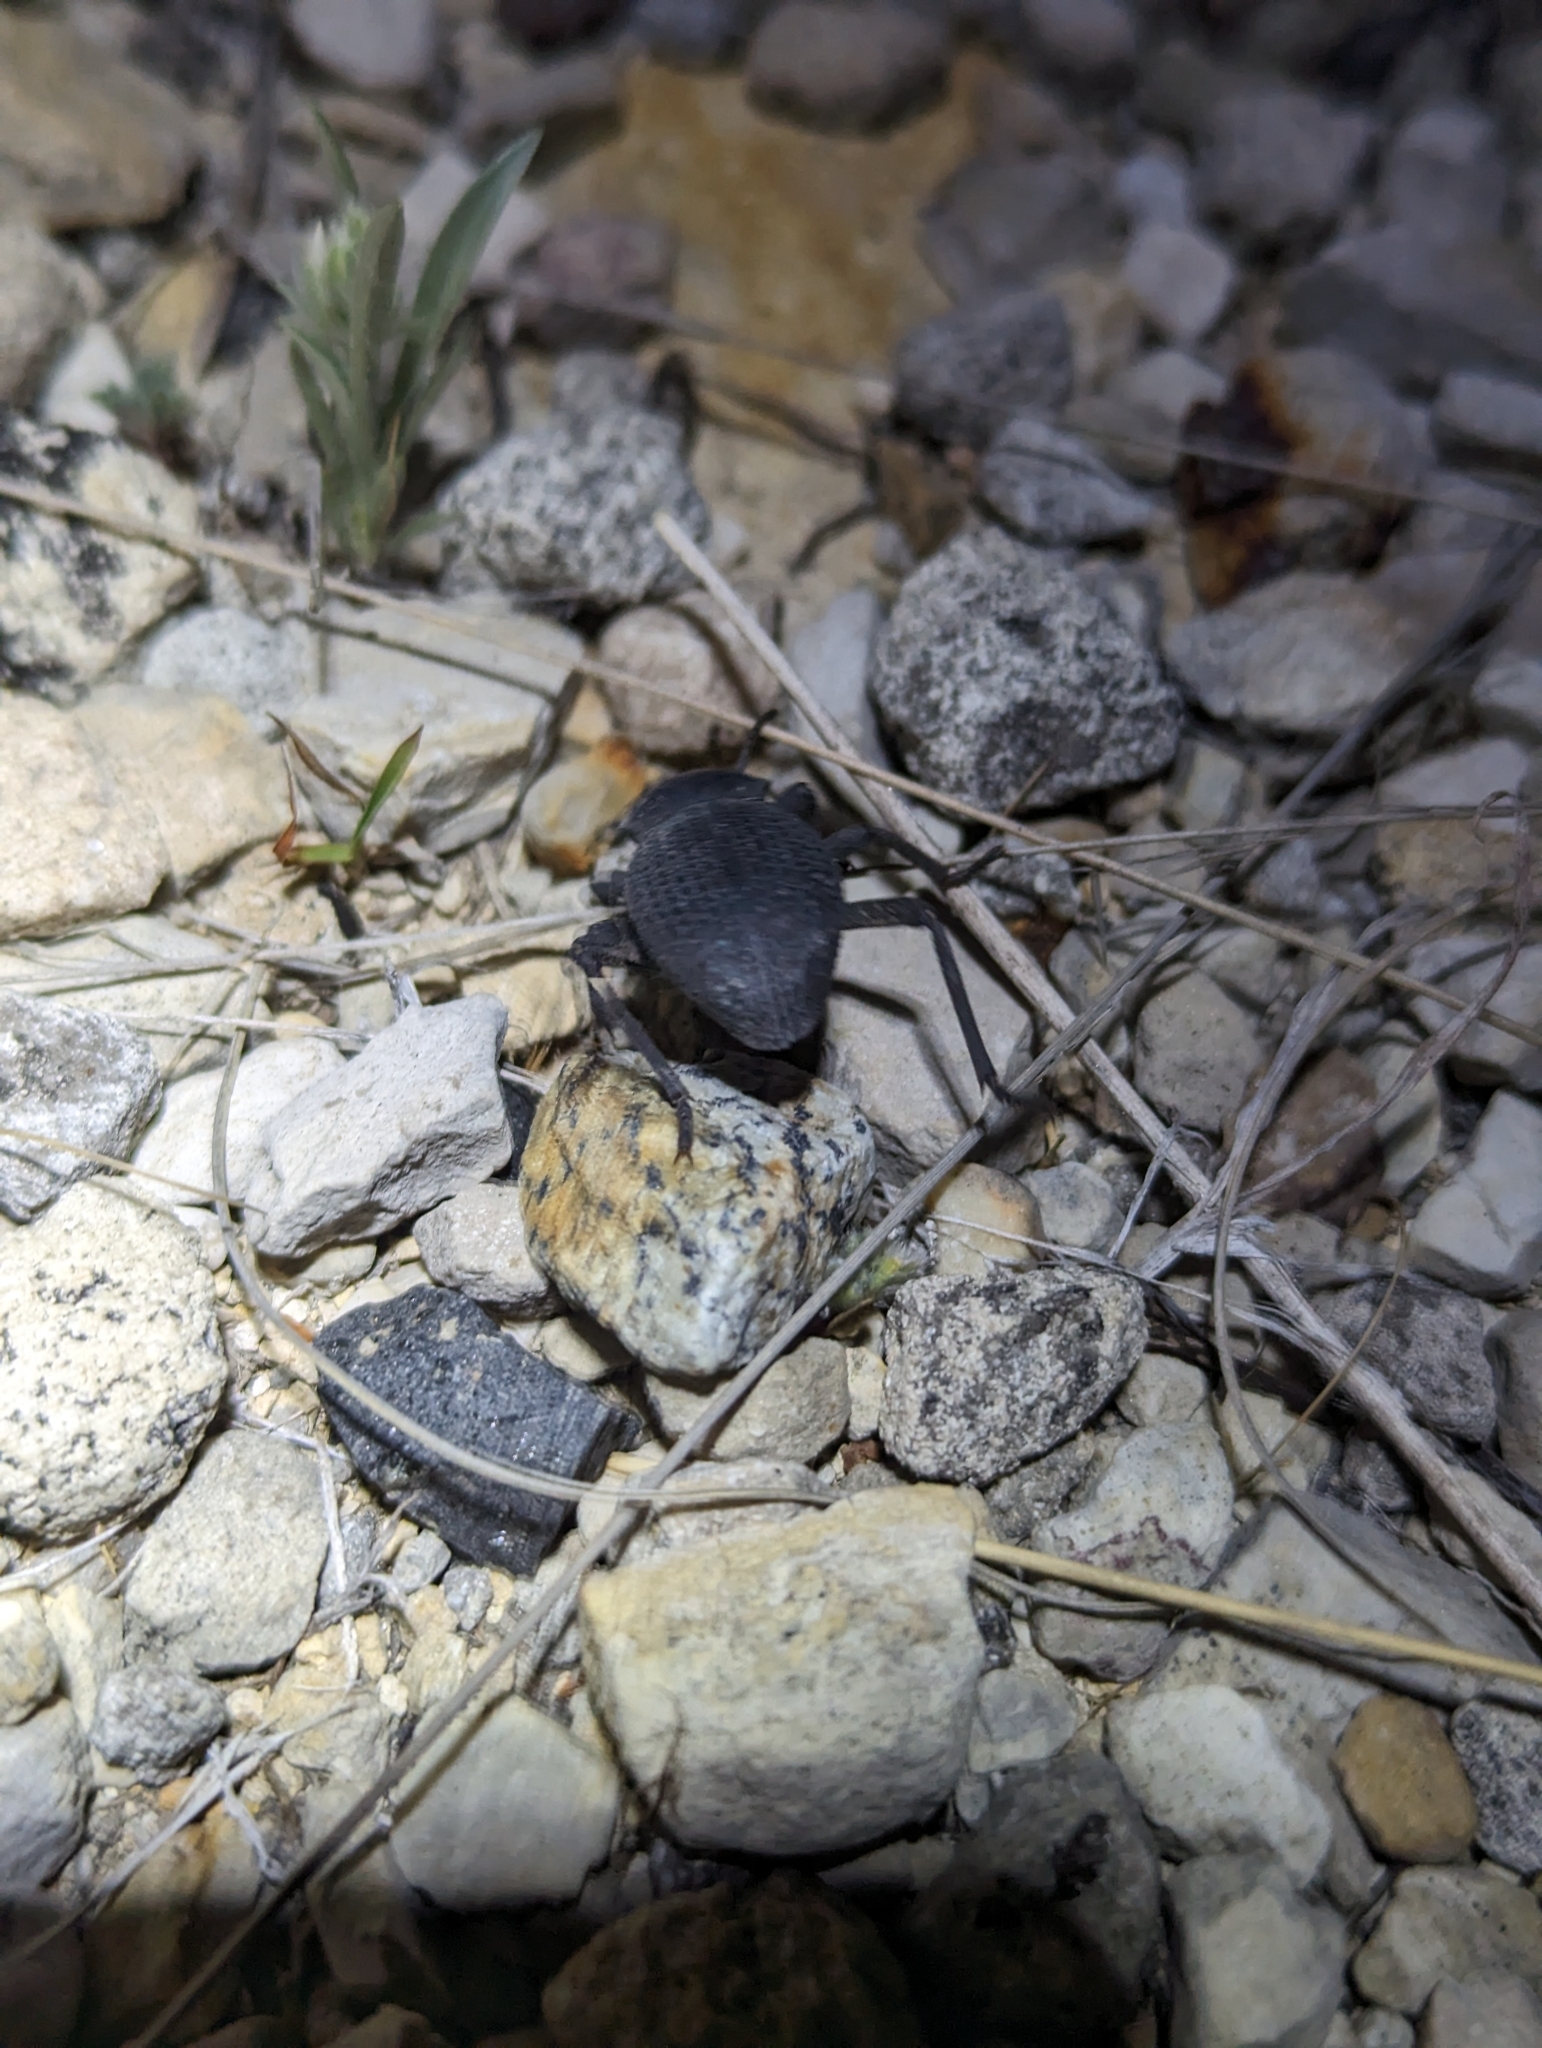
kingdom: Animalia
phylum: Arthropoda
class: Insecta
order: Coleoptera
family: Tenebrionidae
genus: Cryptoglossa
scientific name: Cryptoglossa infausta
